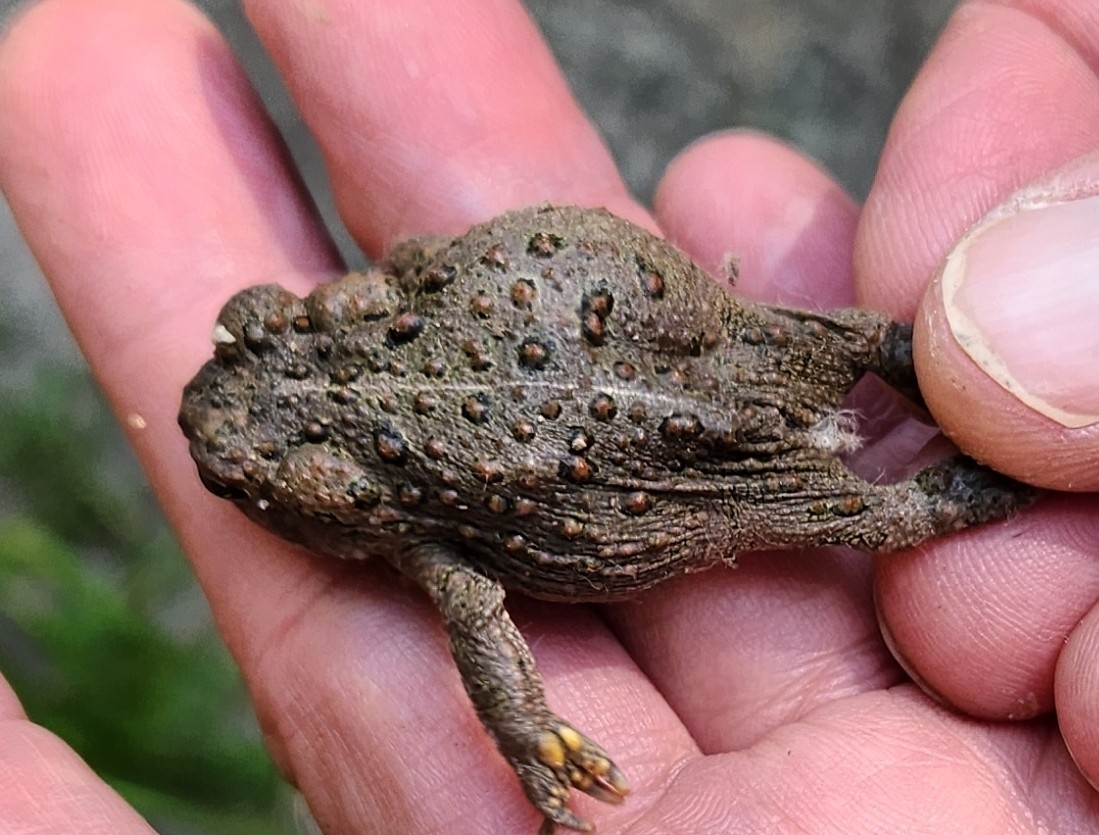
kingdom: Animalia
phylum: Chordata
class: Amphibia
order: Anura
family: Bufonidae
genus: Anaxyrus
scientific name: Anaxyrus boreas
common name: Western toad
